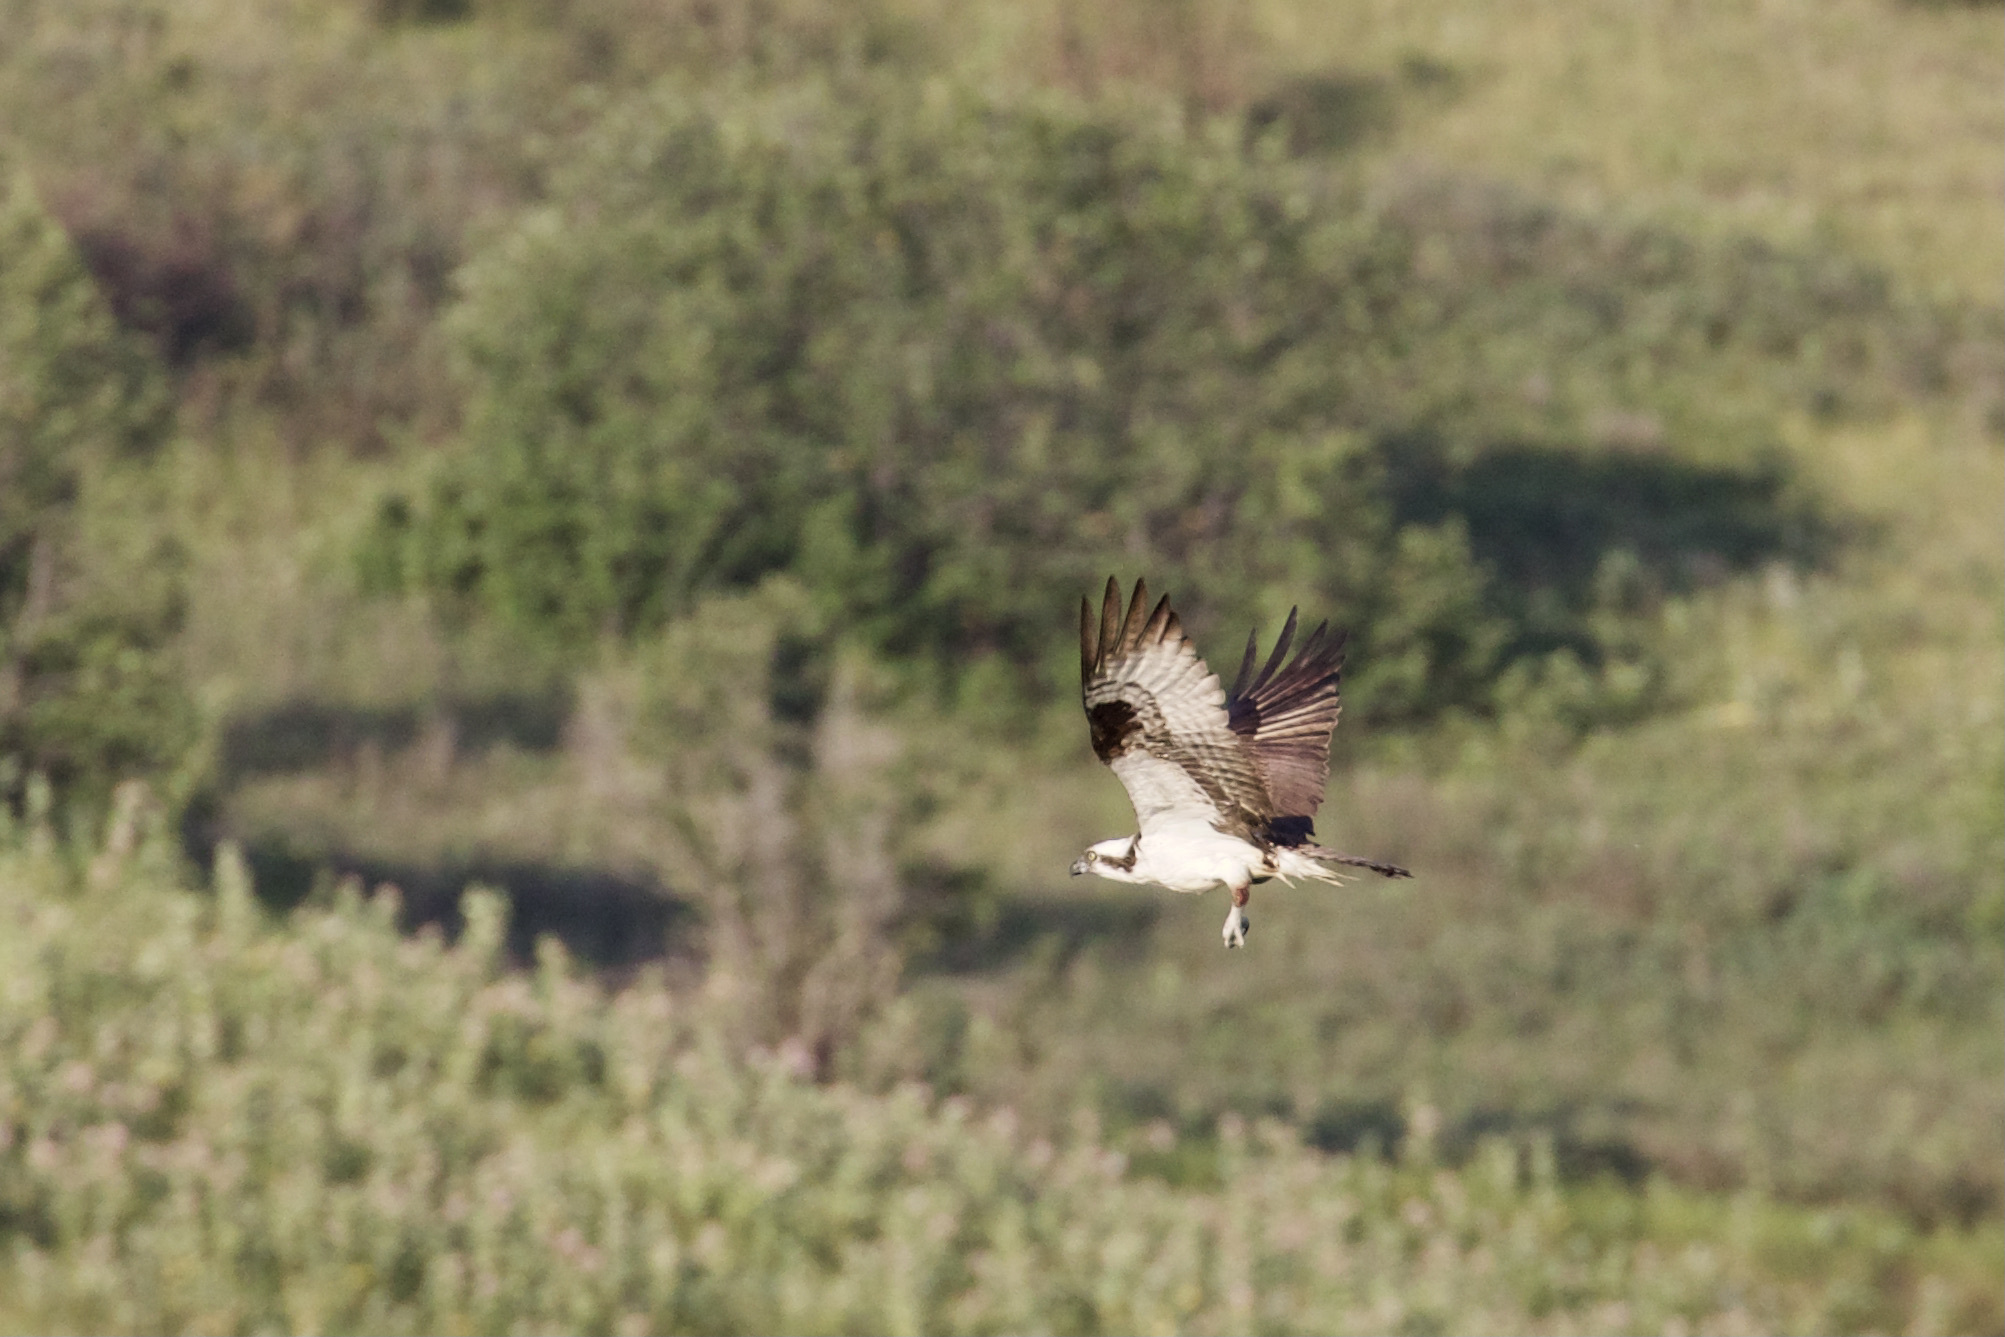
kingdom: Animalia
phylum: Chordata
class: Aves
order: Accipitriformes
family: Pandionidae
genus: Pandion
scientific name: Pandion haliaetus
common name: Osprey
